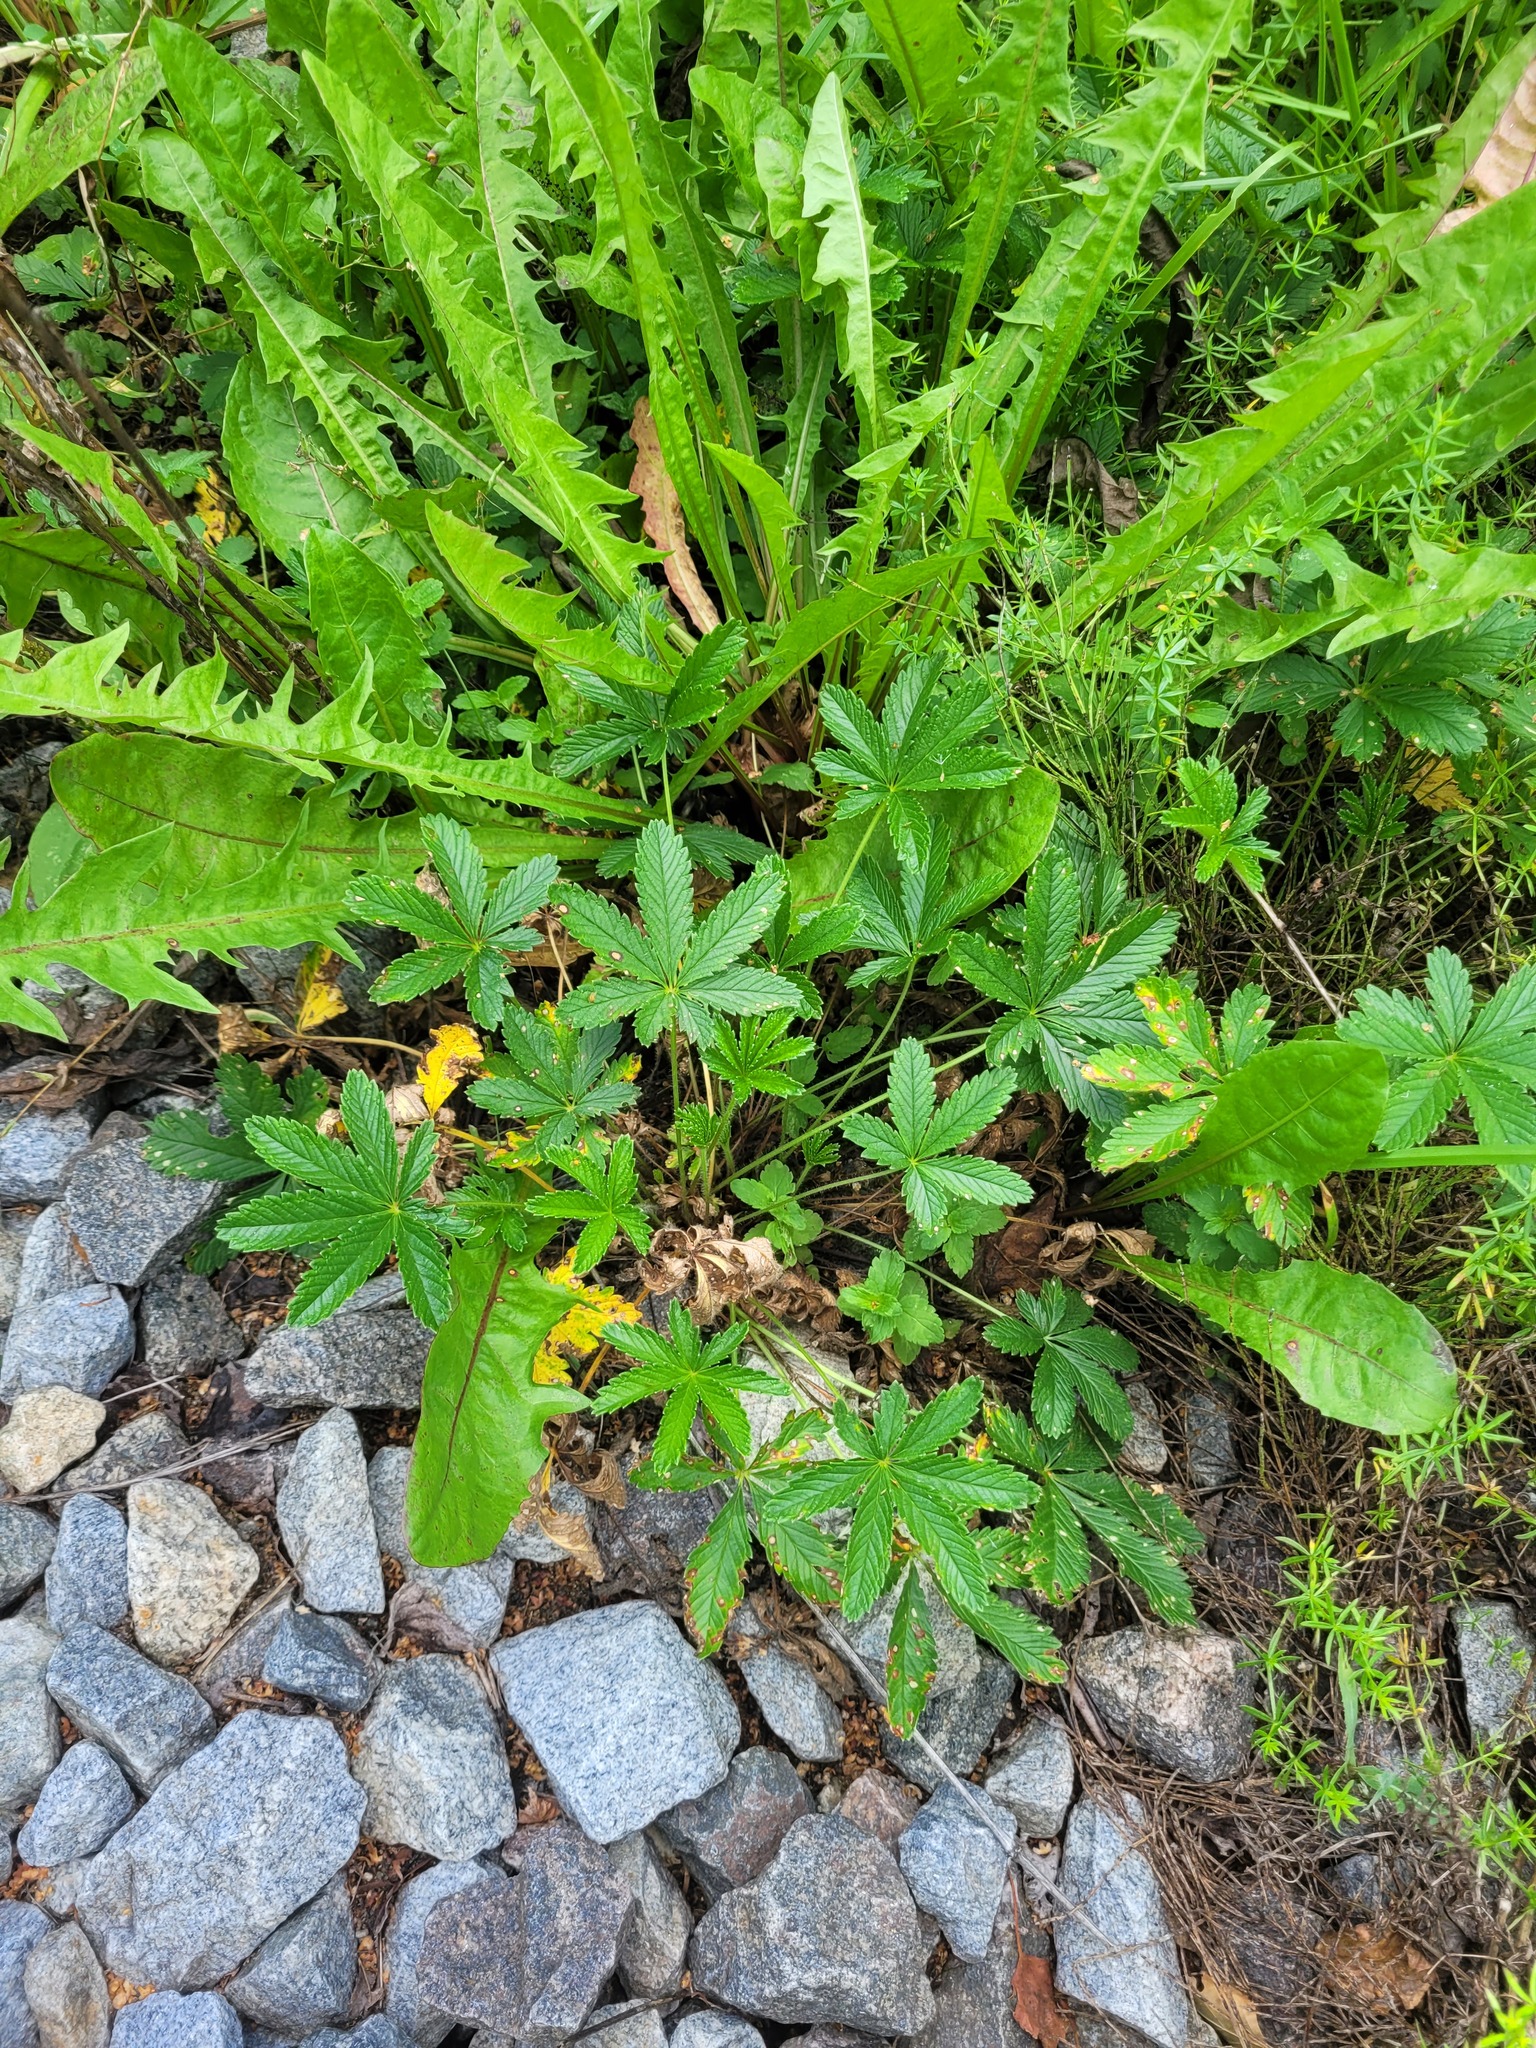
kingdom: Plantae
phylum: Tracheophyta
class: Magnoliopsida
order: Rosales
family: Rosaceae
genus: Potentilla
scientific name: Potentilla thuringiaca
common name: European cinquefoil
